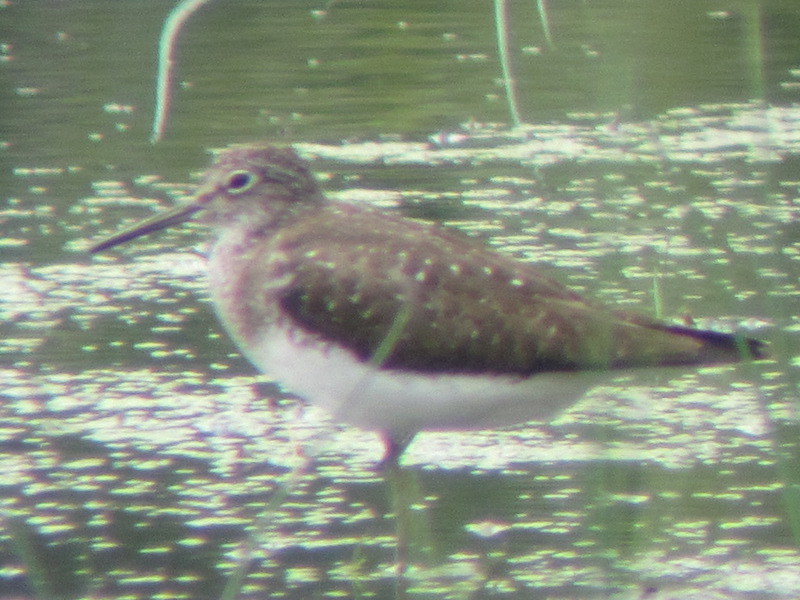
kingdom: Animalia
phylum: Chordata
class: Aves
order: Charadriiformes
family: Scolopacidae
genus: Tringa
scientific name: Tringa solitaria
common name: Solitary sandpiper
